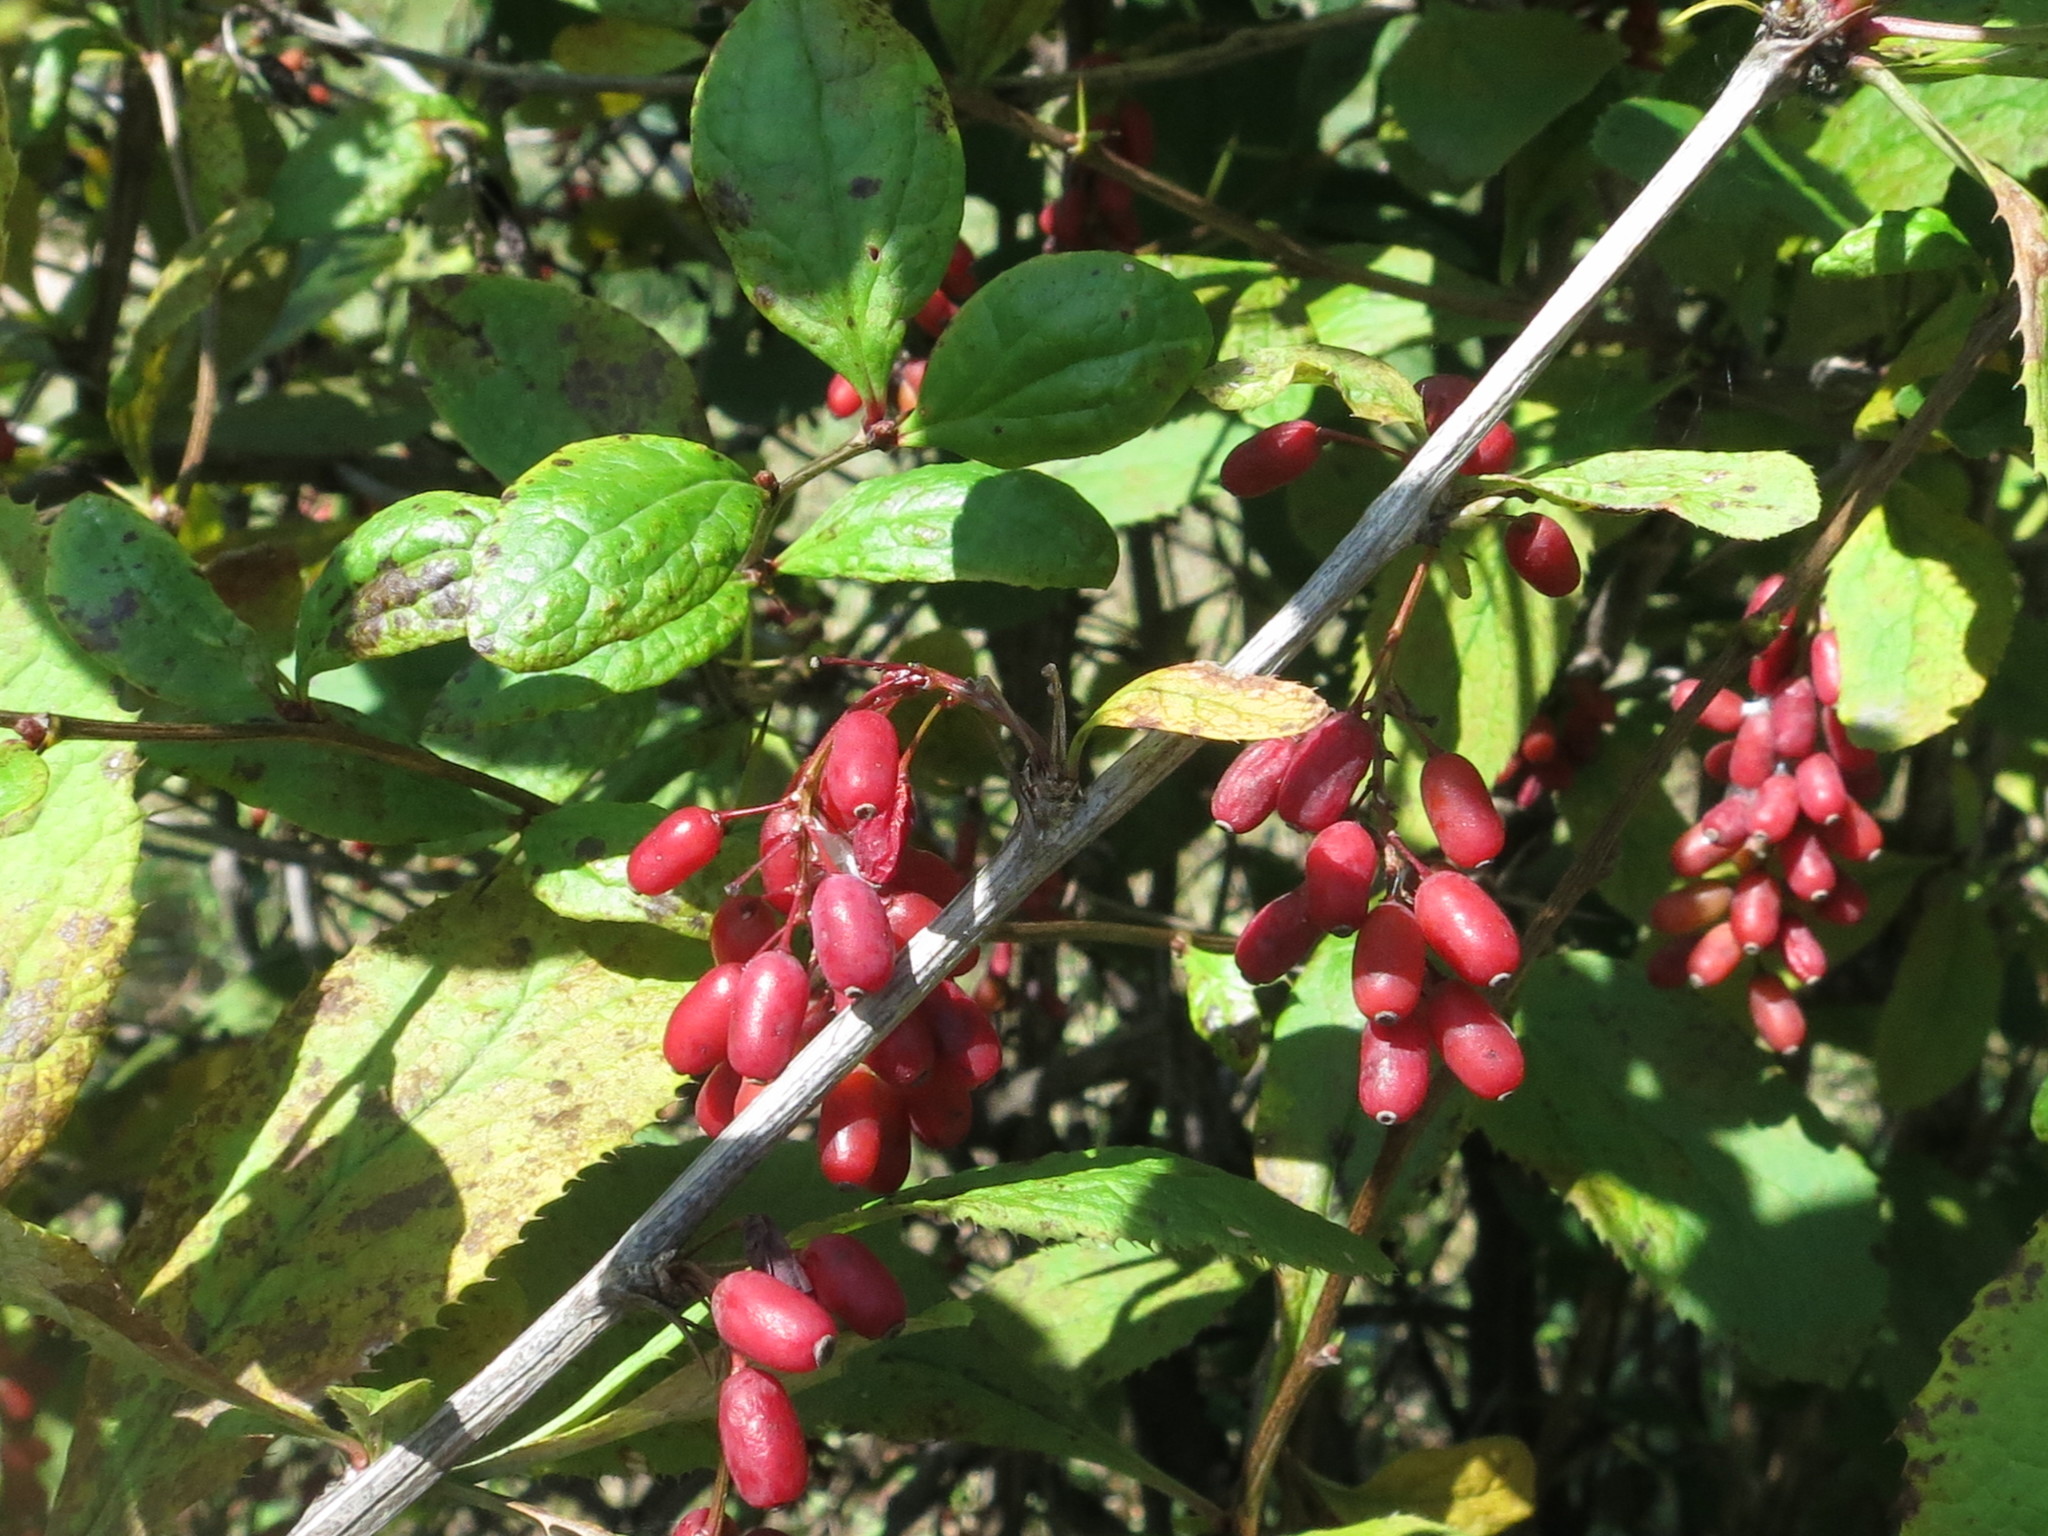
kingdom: Plantae
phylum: Tracheophyta
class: Magnoliopsida
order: Ranunculales
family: Berberidaceae
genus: Berberis
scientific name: Berberis amurensis
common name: Amur barberry
